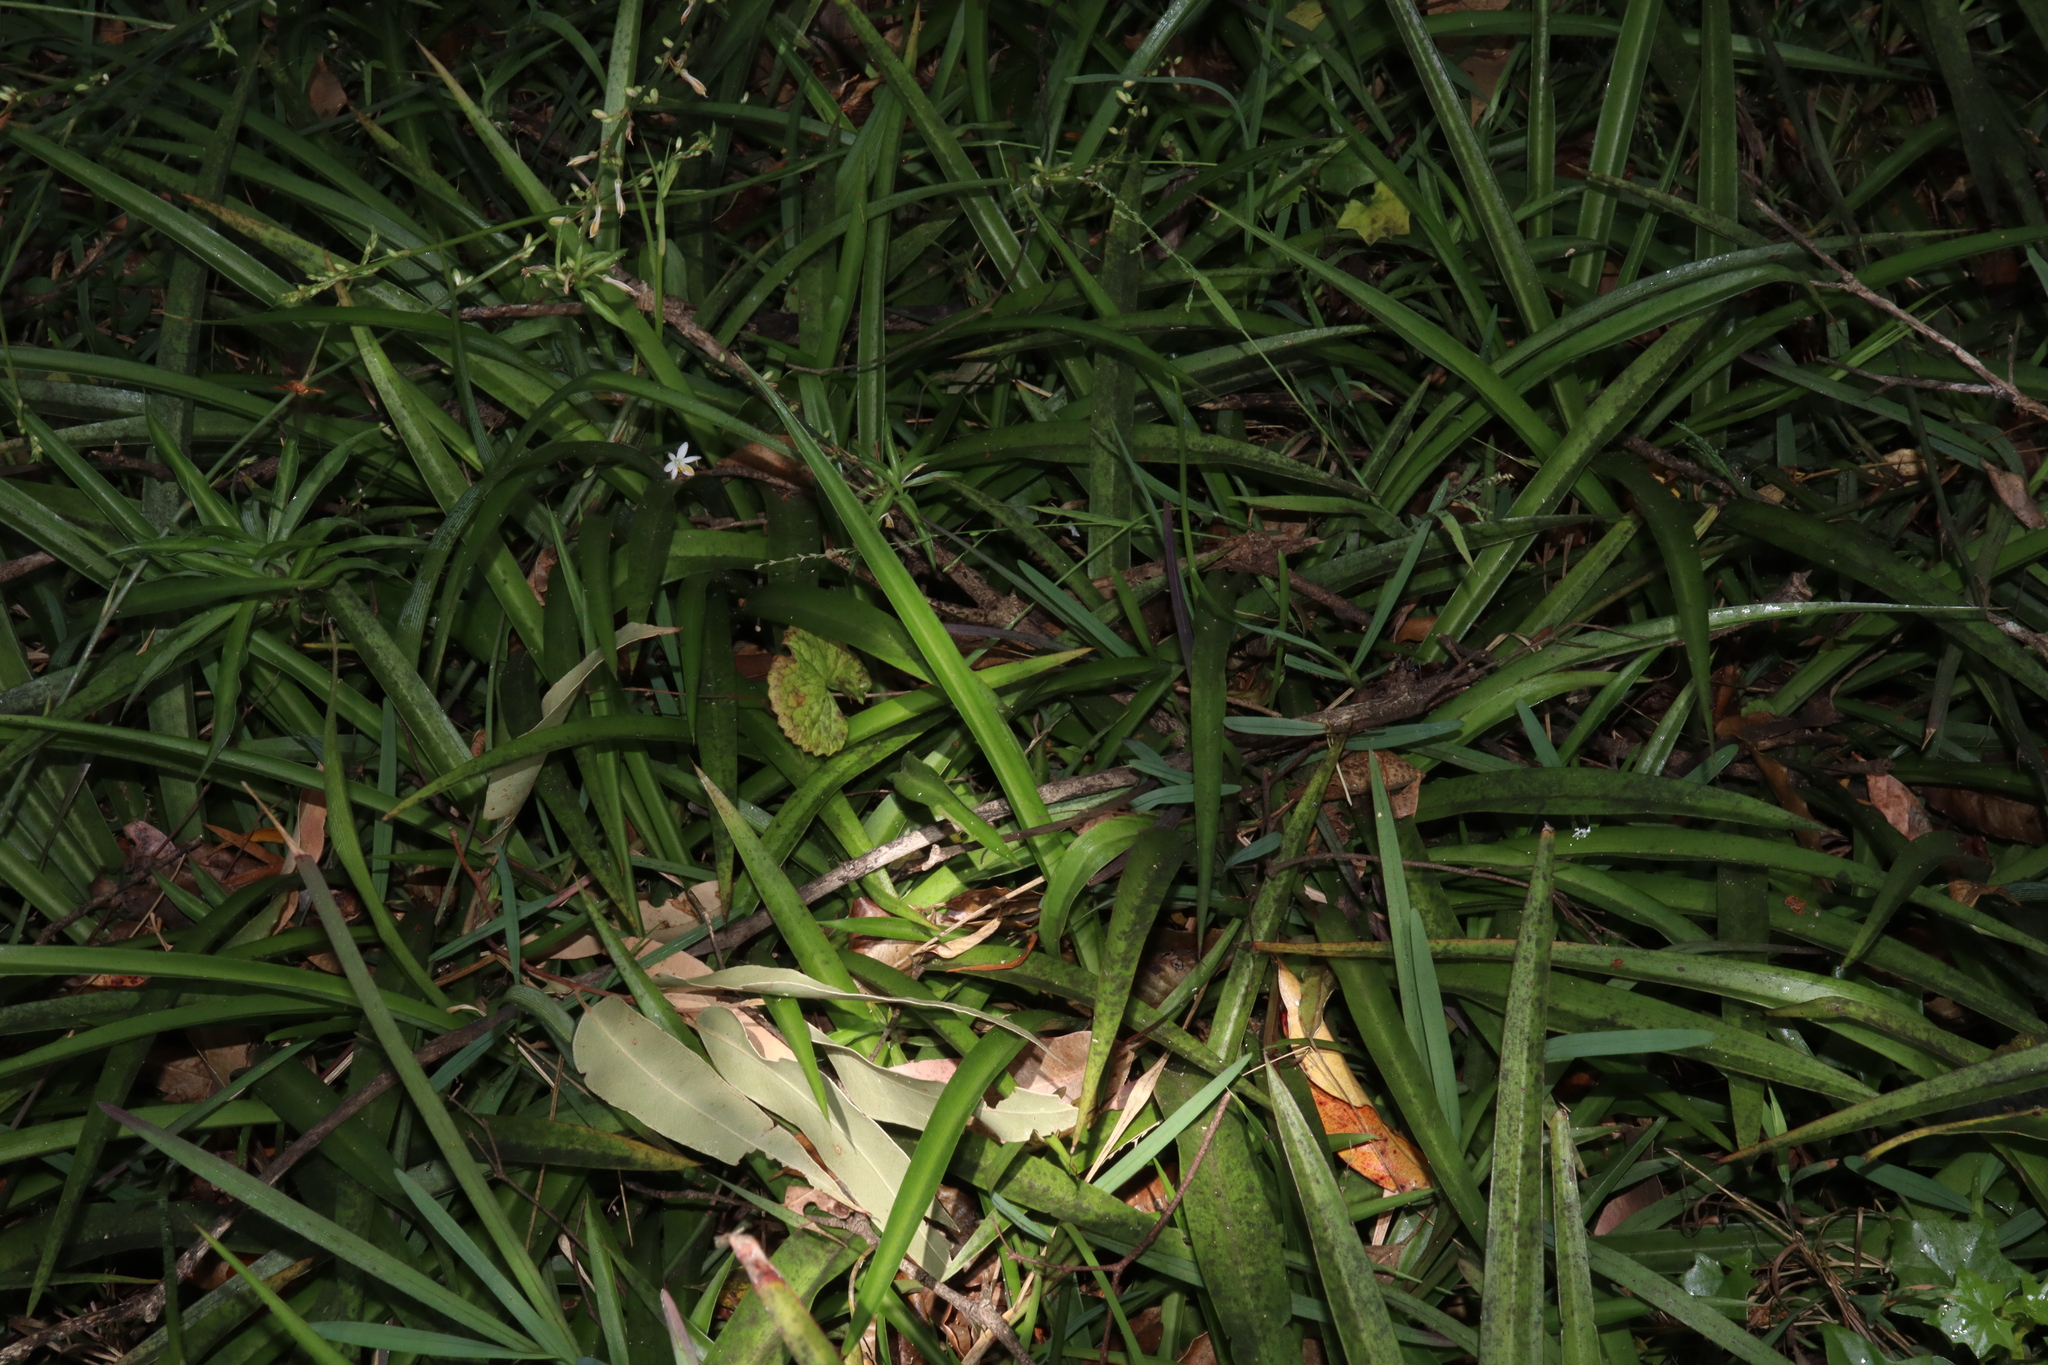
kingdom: Plantae
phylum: Tracheophyta
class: Liliopsida
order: Asparagales
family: Asparagaceae
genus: Chlorophytum
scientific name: Chlorophytum comosum
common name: Spider plant
